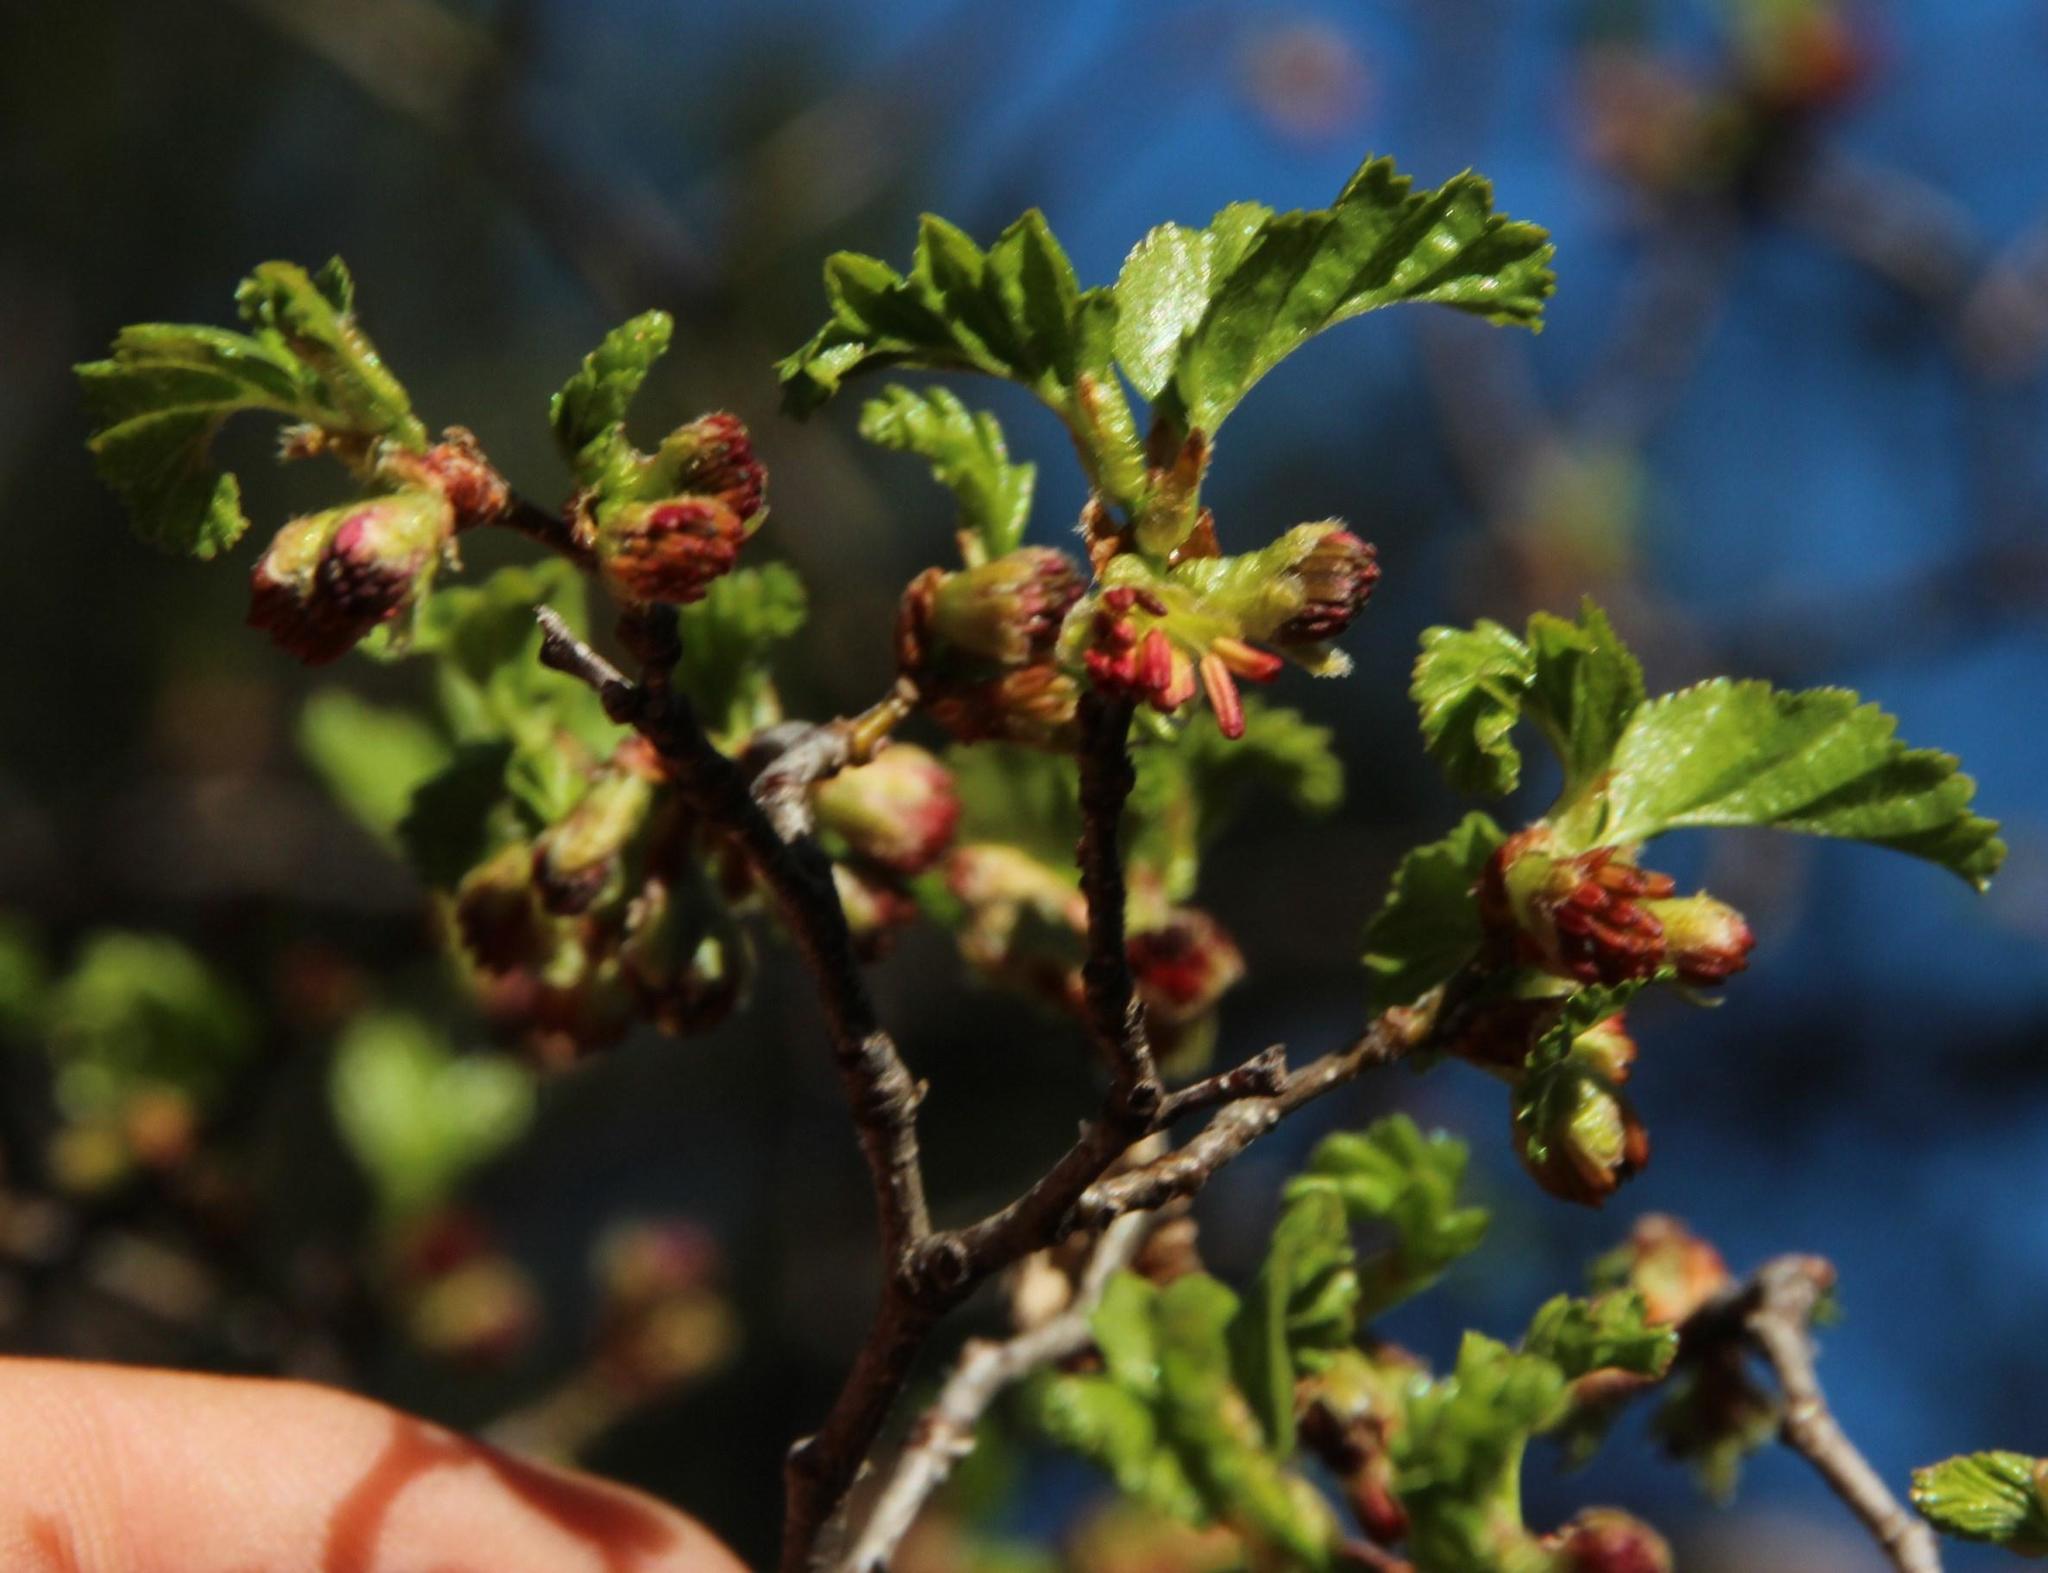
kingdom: Plantae
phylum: Tracheophyta
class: Magnoliopsida
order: Fagales
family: Nothofagaceae
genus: Nothofagus
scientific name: Nothofagus antarctica
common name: Antarctic beech
